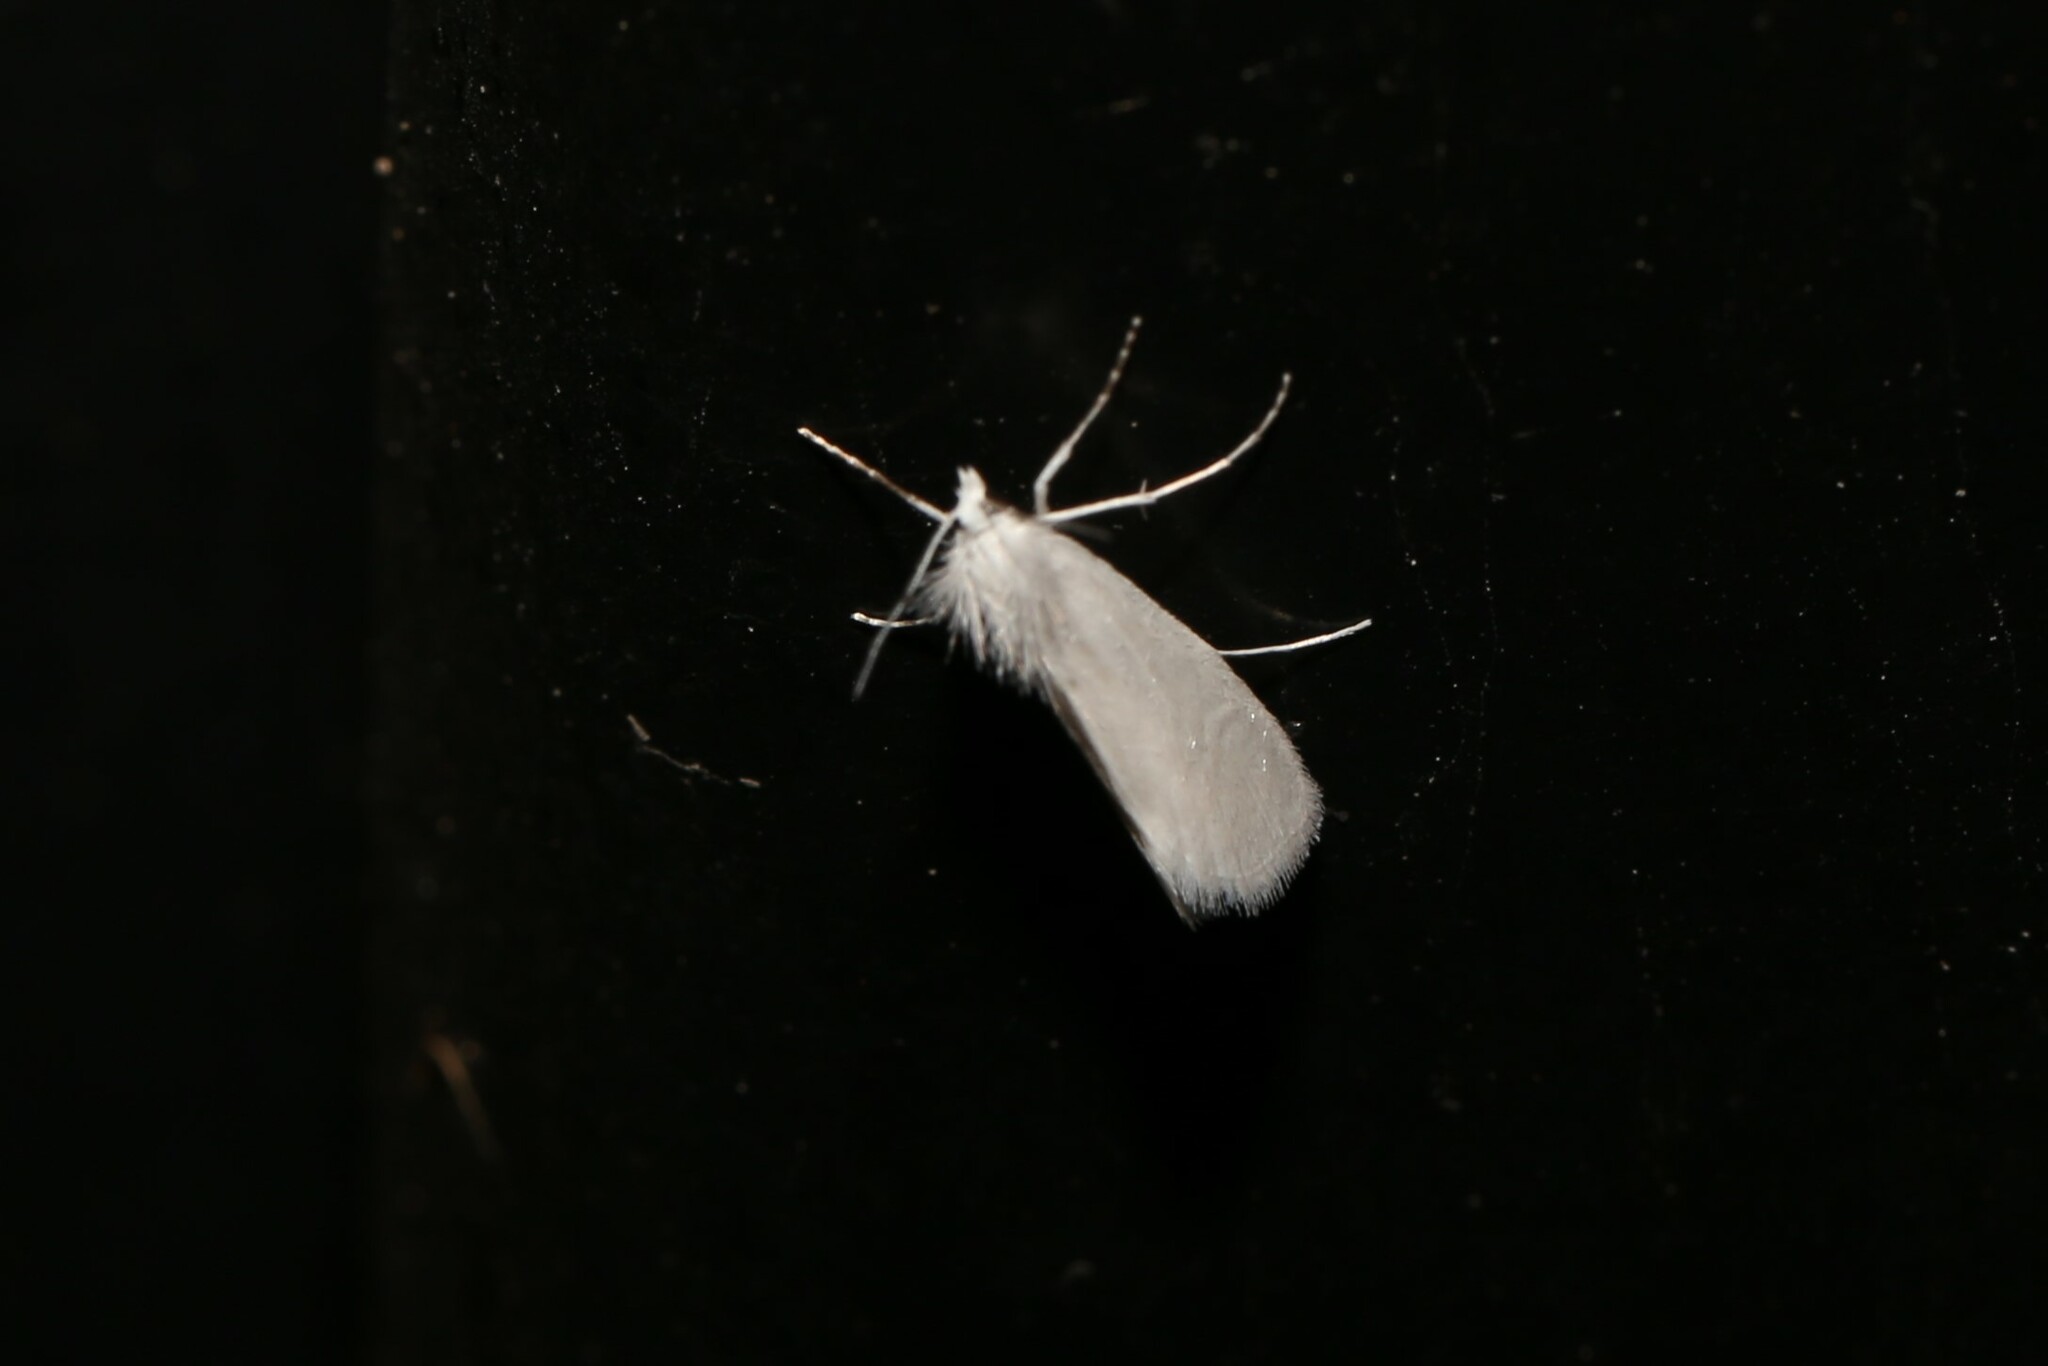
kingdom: Animalia
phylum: Arthropoda
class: Insecta
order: Lepidoptera
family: Crambidae
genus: Tipanaea
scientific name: Tipanaea patulella
